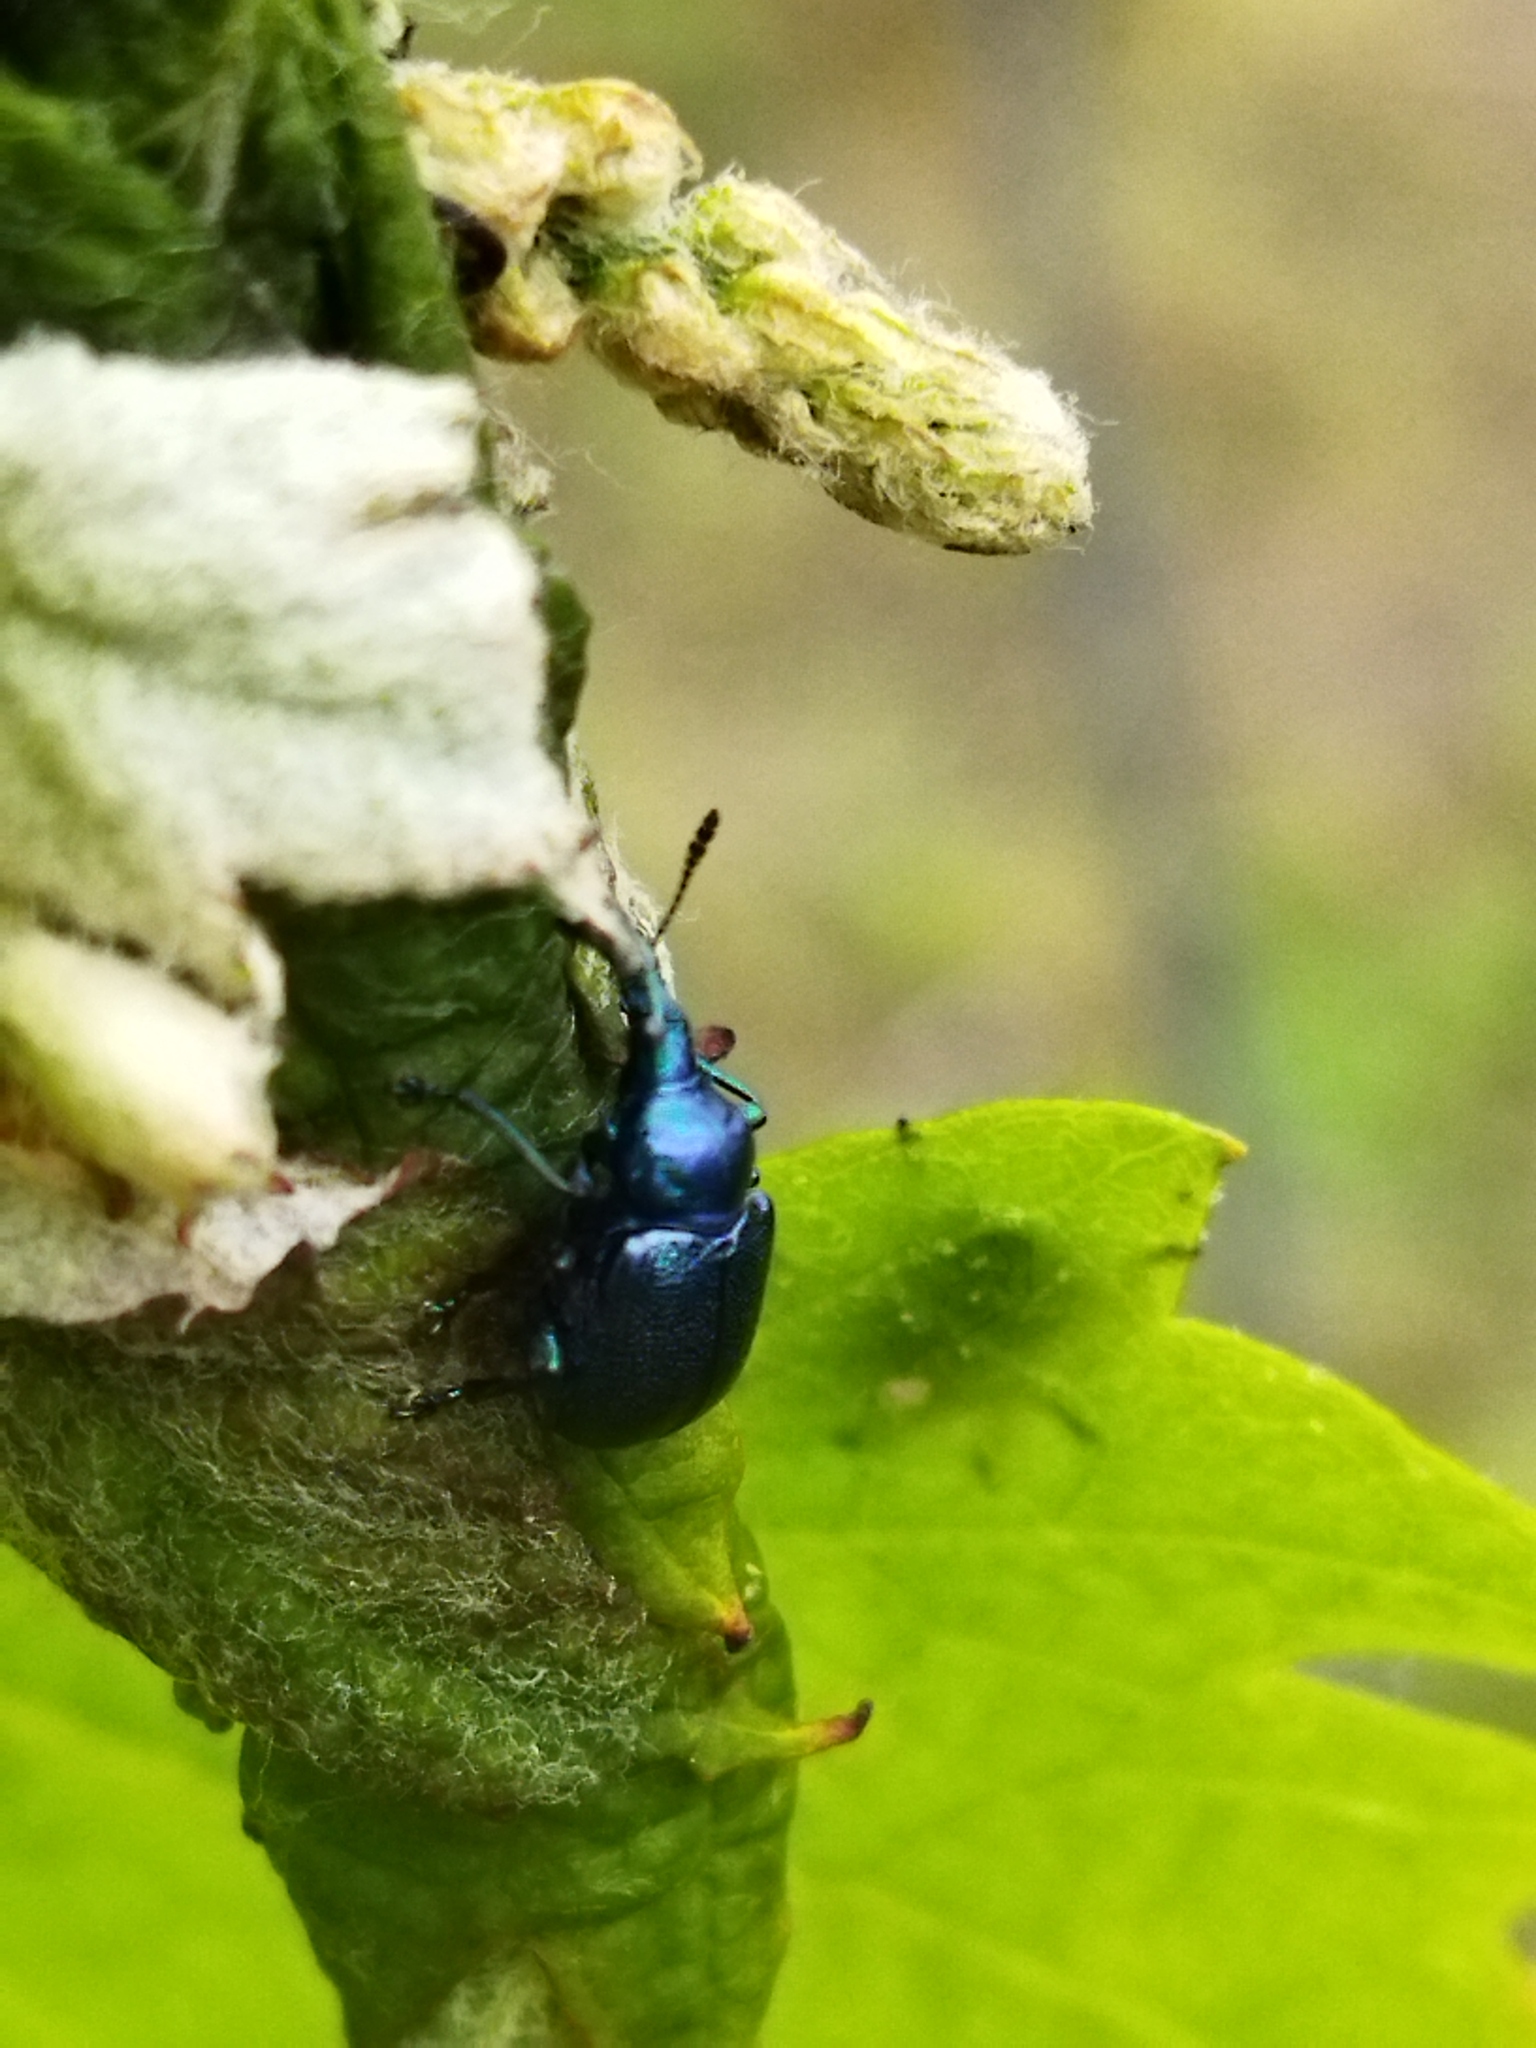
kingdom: Animalia
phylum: Arthropoda
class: Insecta
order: Coleoptera
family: Attelabidae
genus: Byctiscus
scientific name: Byctiscus betulae
